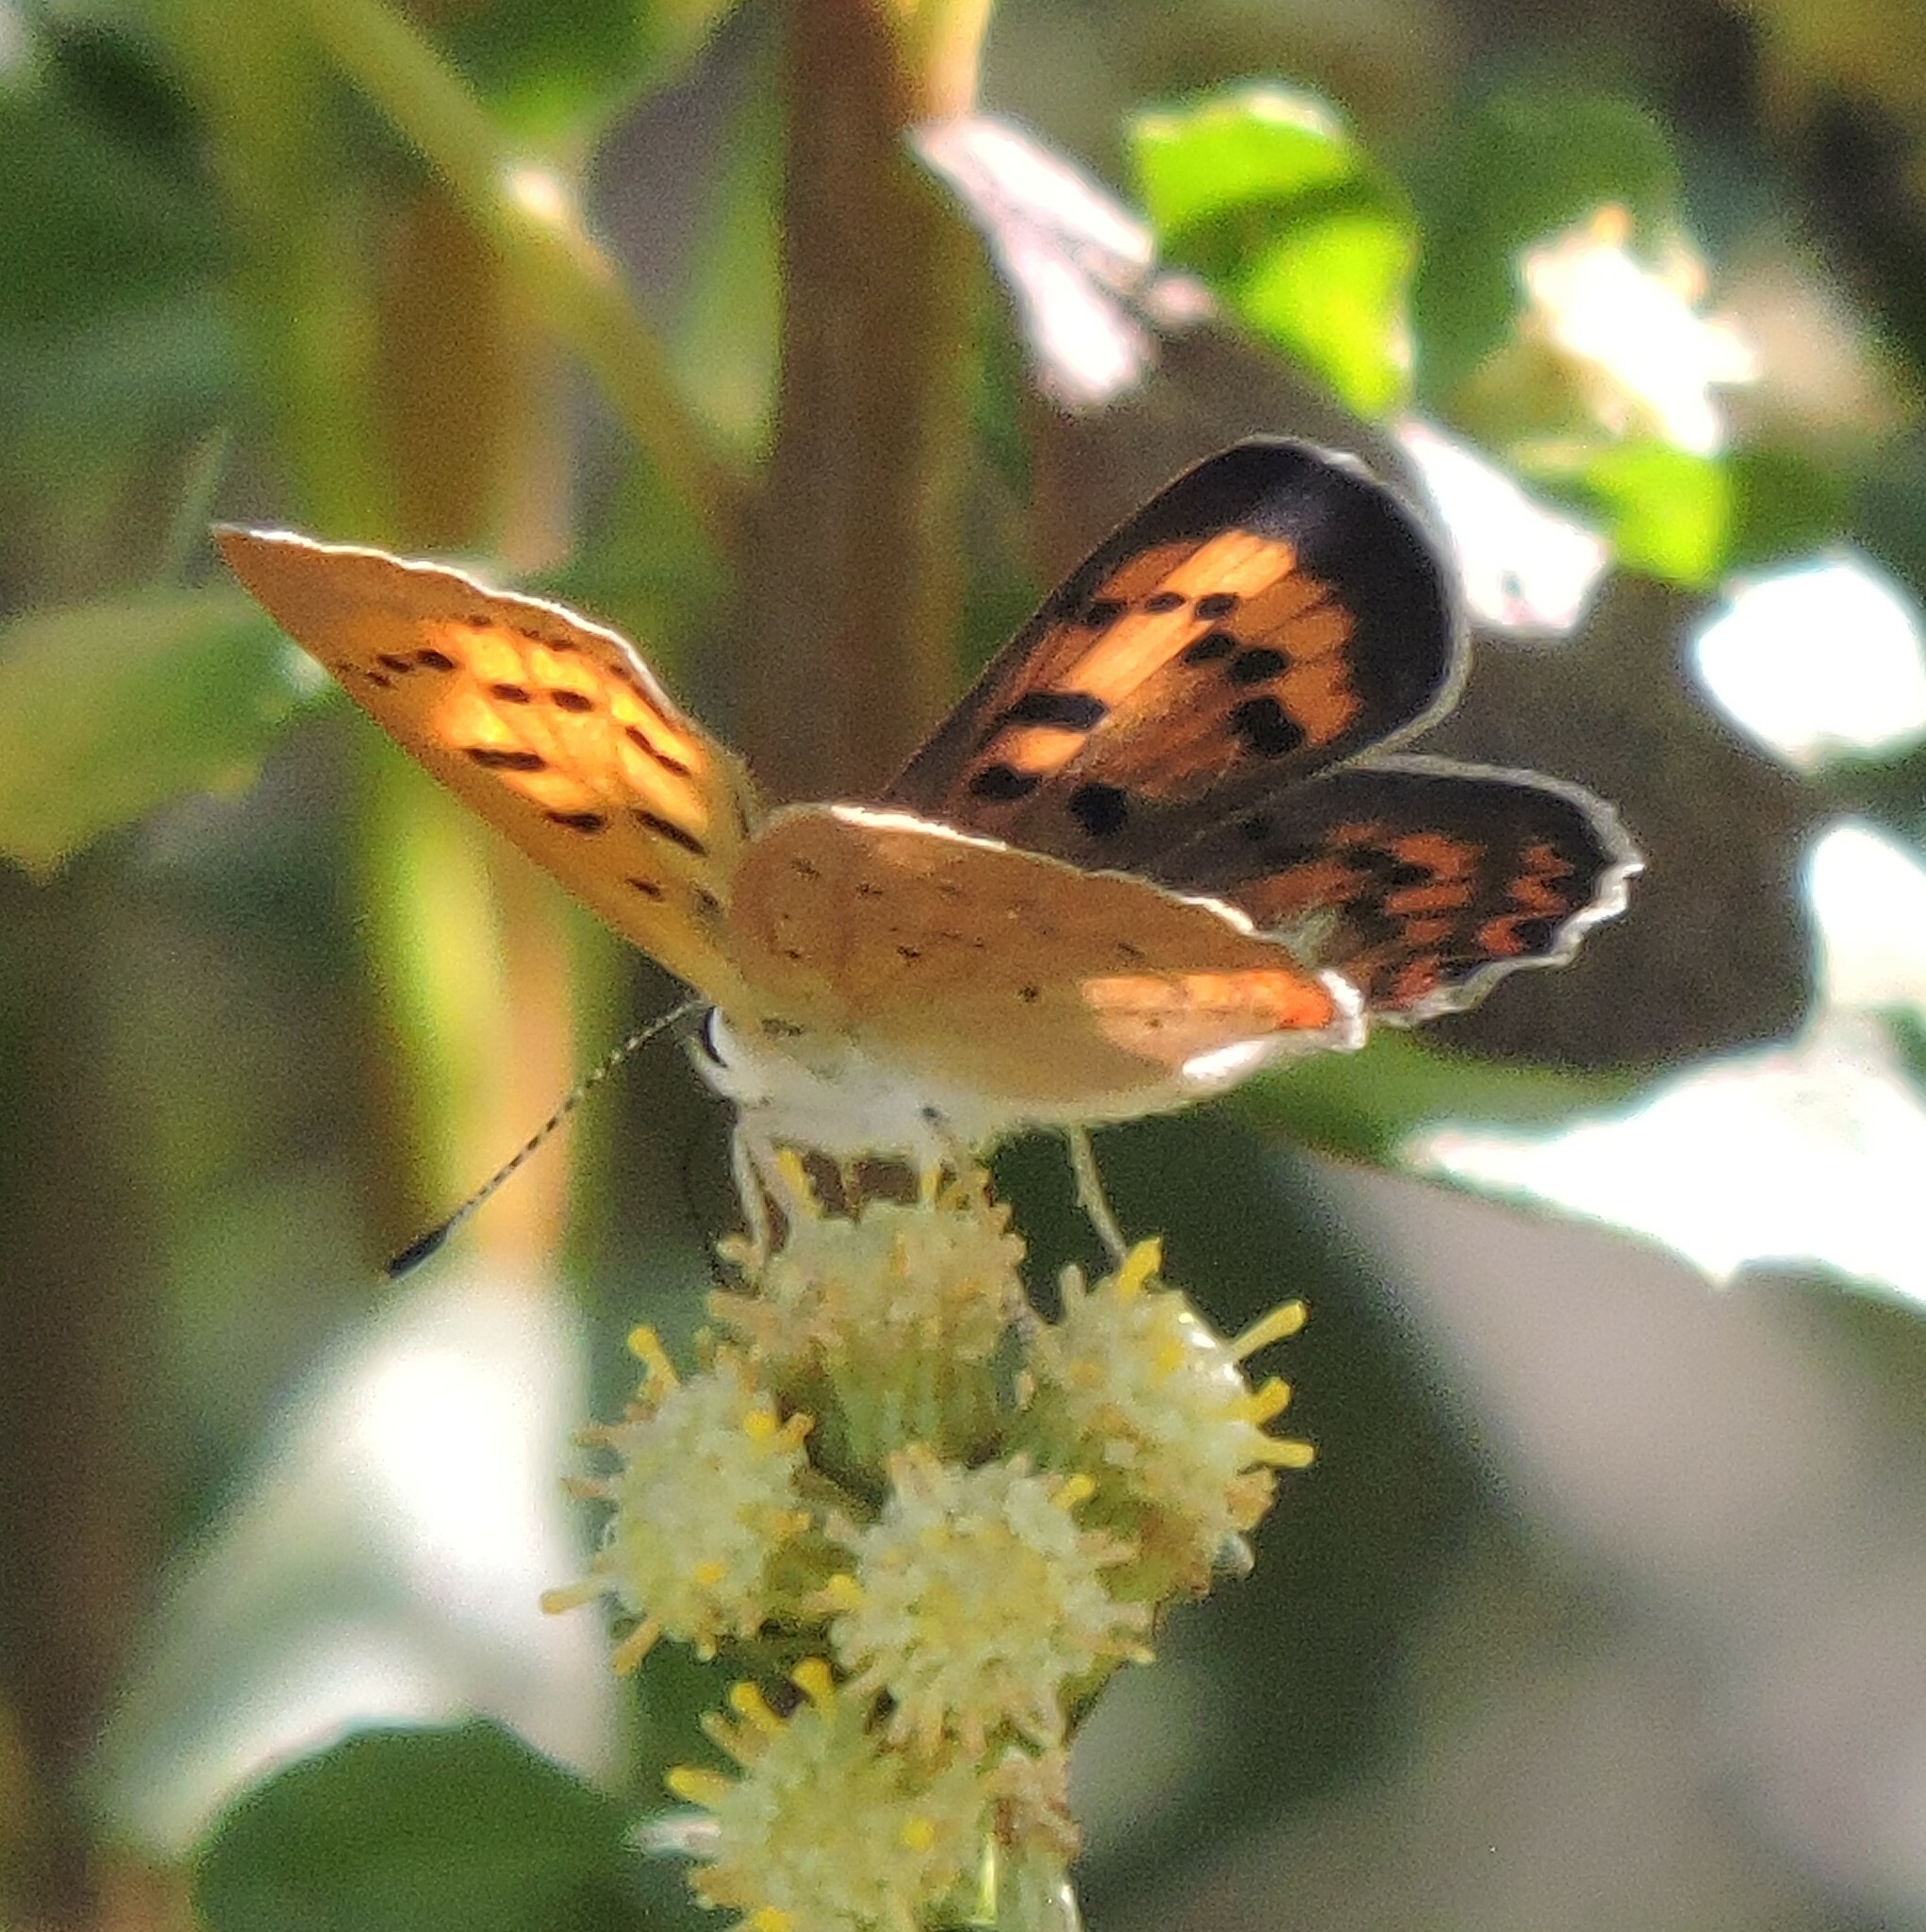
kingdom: Animalia
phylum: Arthropoda
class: Insecta
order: Lepidoptera
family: Lycaenidae
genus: Tharsalea
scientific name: Tharsalea helloides
